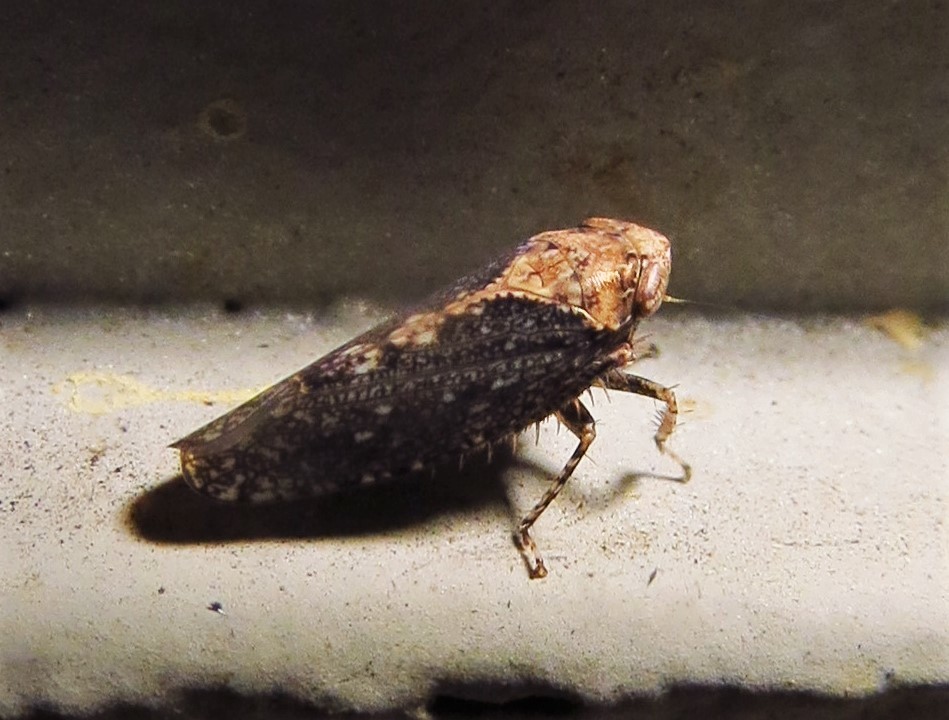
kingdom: Animalia
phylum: Arthropoda
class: Insecta
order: Hemiptera
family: Cicadellidae
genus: Excultanus
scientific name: Excultanus excultus
